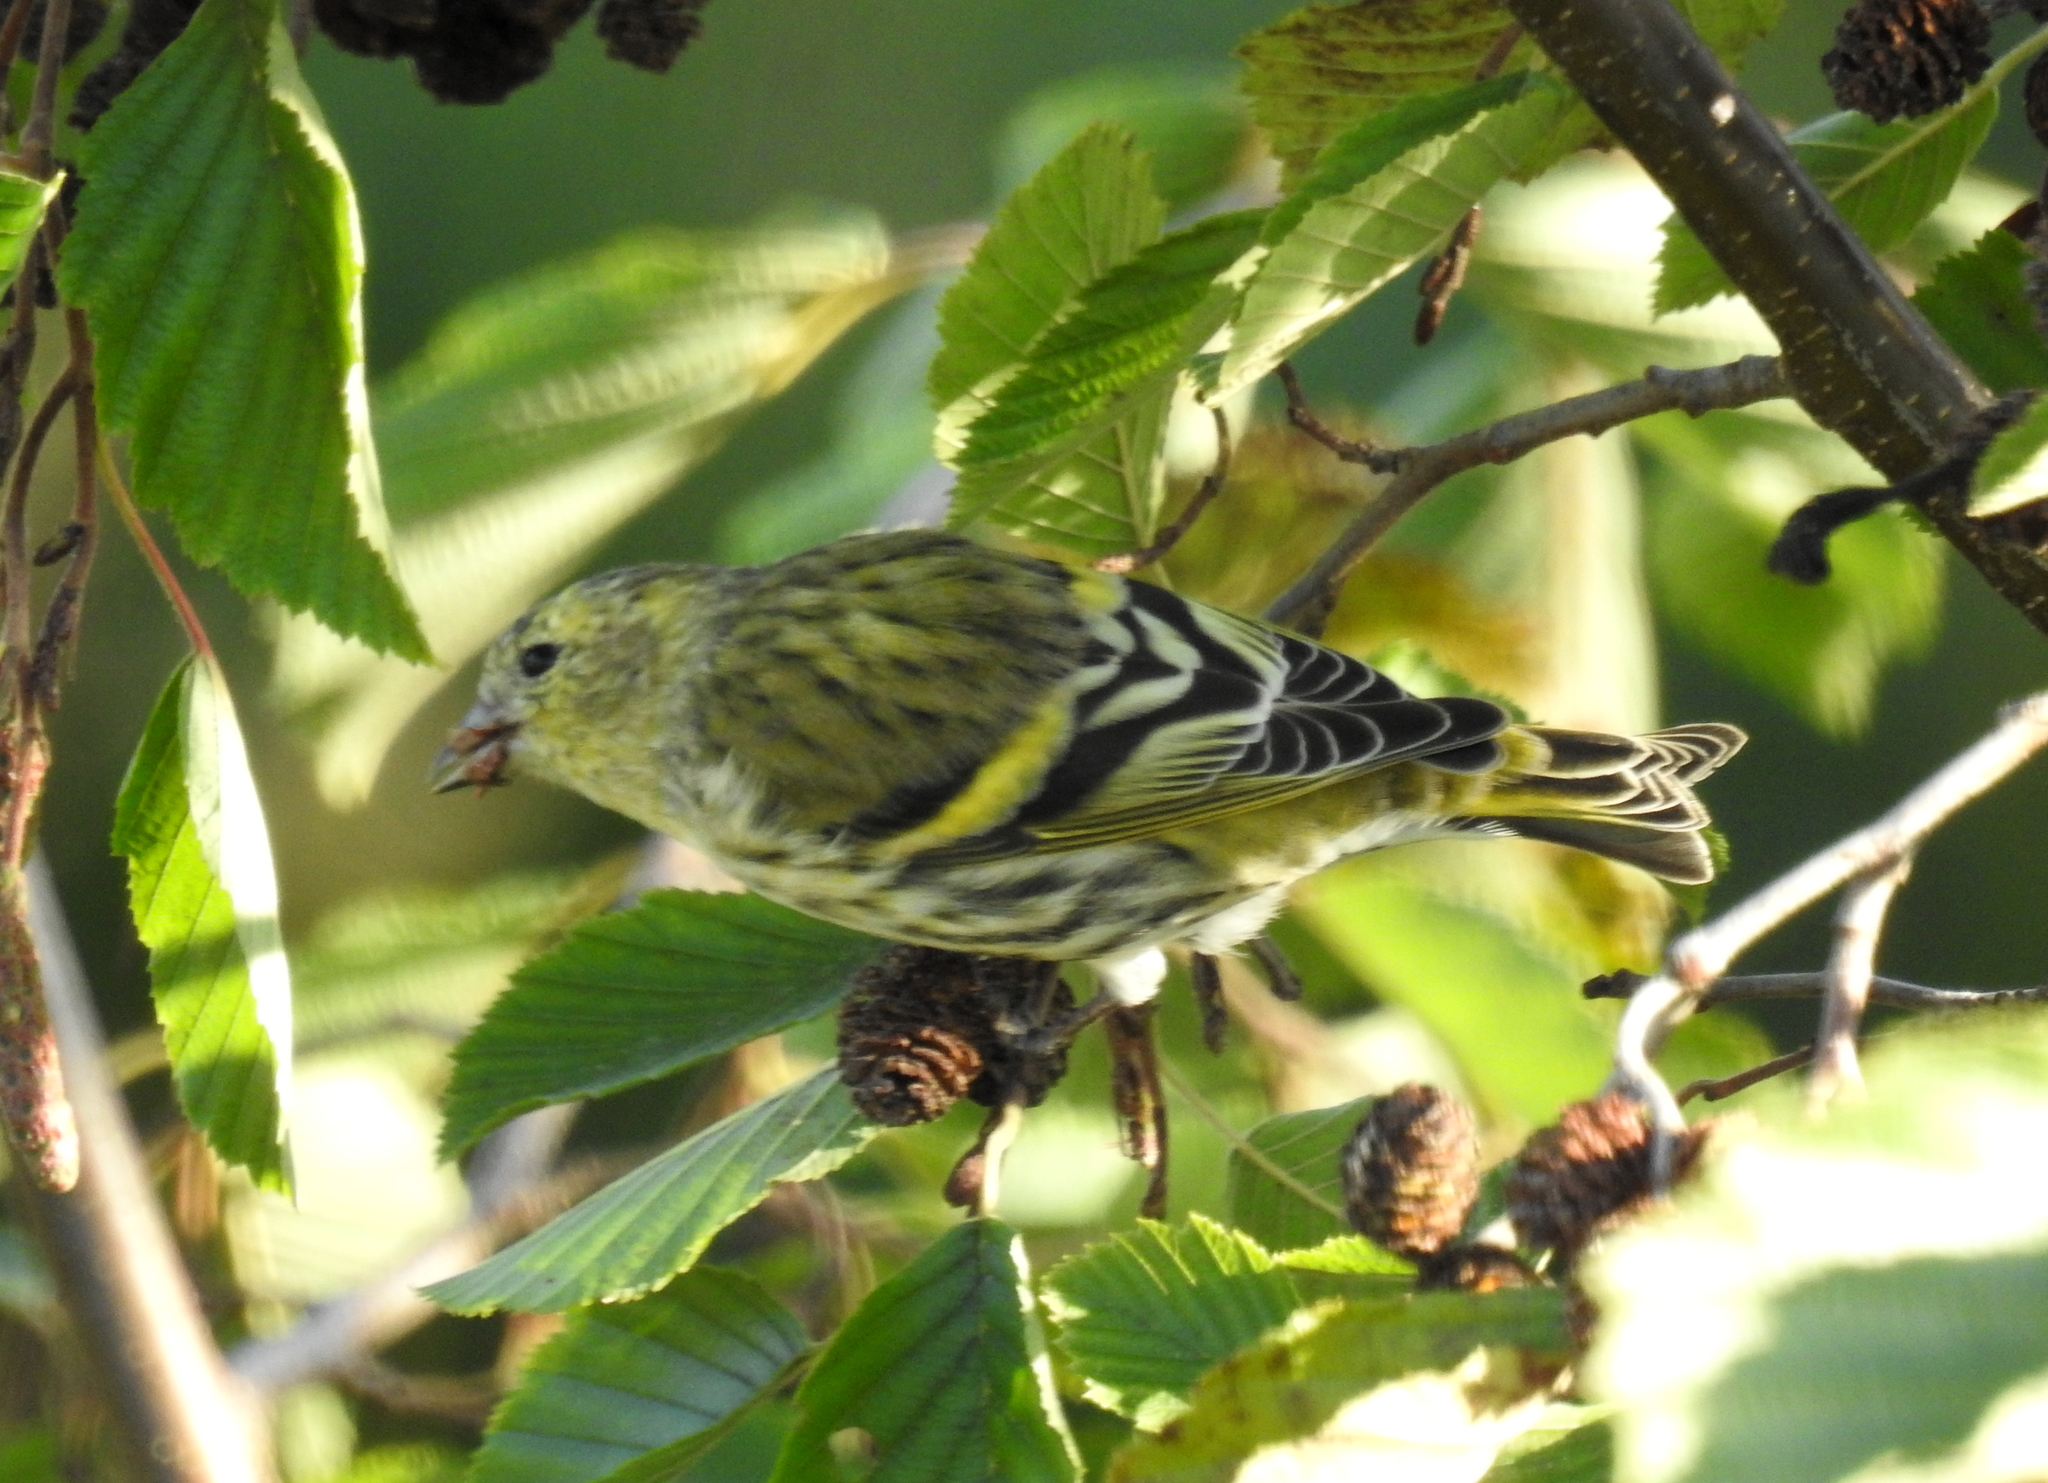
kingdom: Animalia
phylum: Chordata
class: Aves
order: Passeriformes
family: Fringillidae
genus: Spinus
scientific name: Spinus spinus
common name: Eurasian siskin
